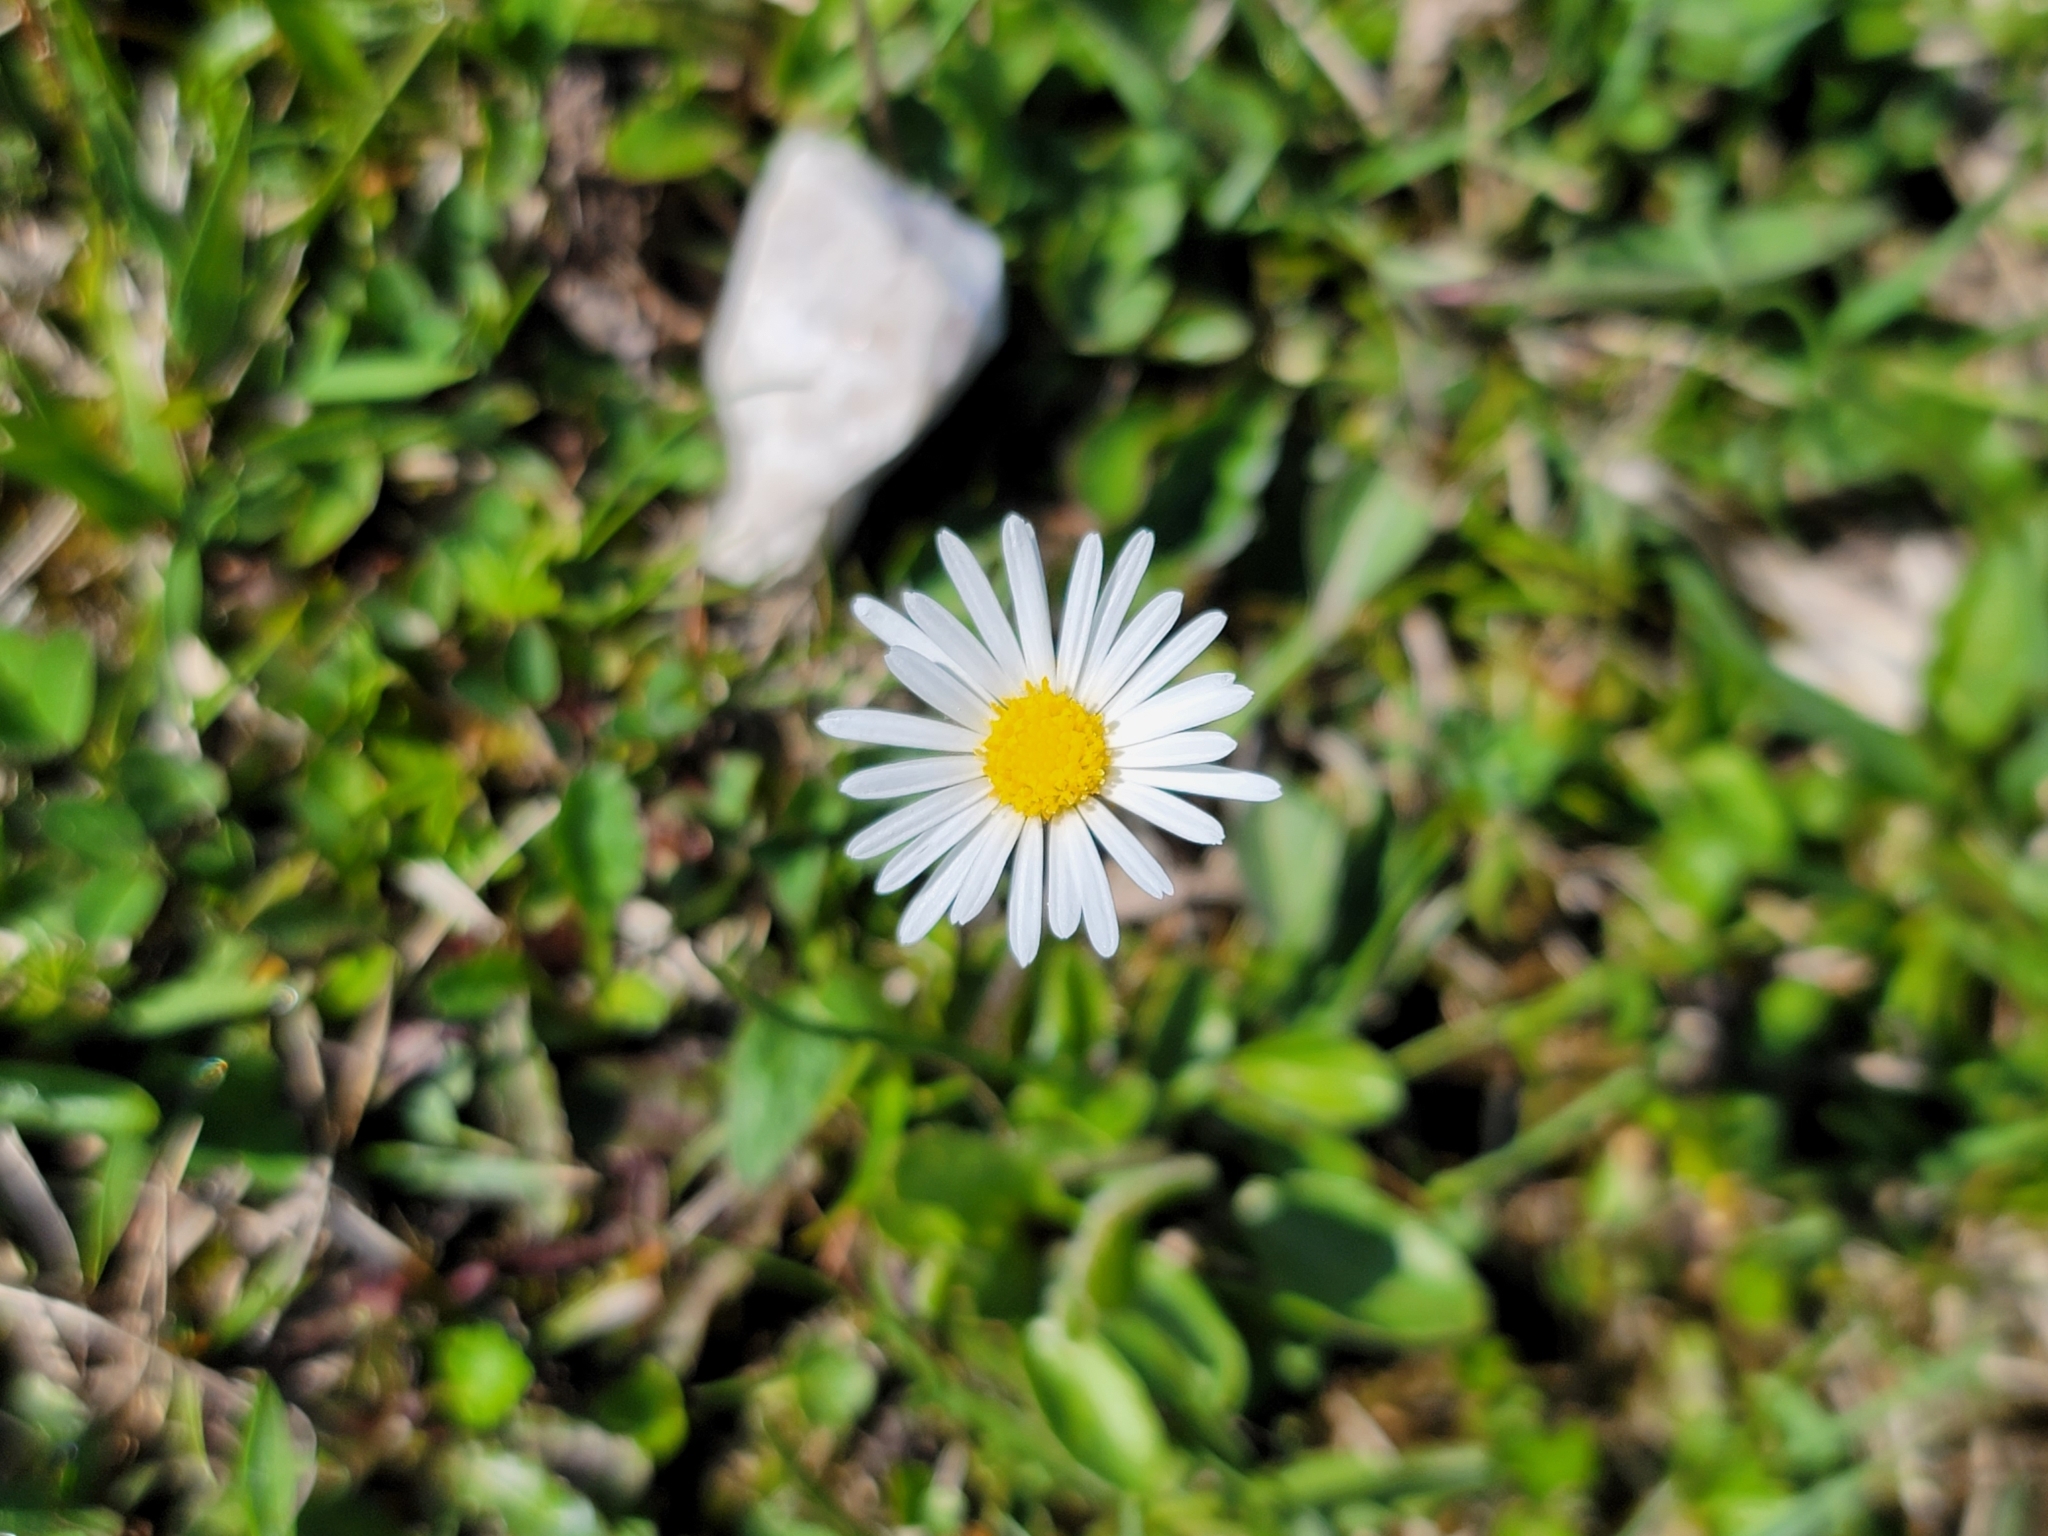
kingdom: Plantae
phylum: Tracheophyta
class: Magnoliopsida
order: Asterales
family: Asteraceae
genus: Bellis
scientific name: Bellis perennis
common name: Lawndaisy
